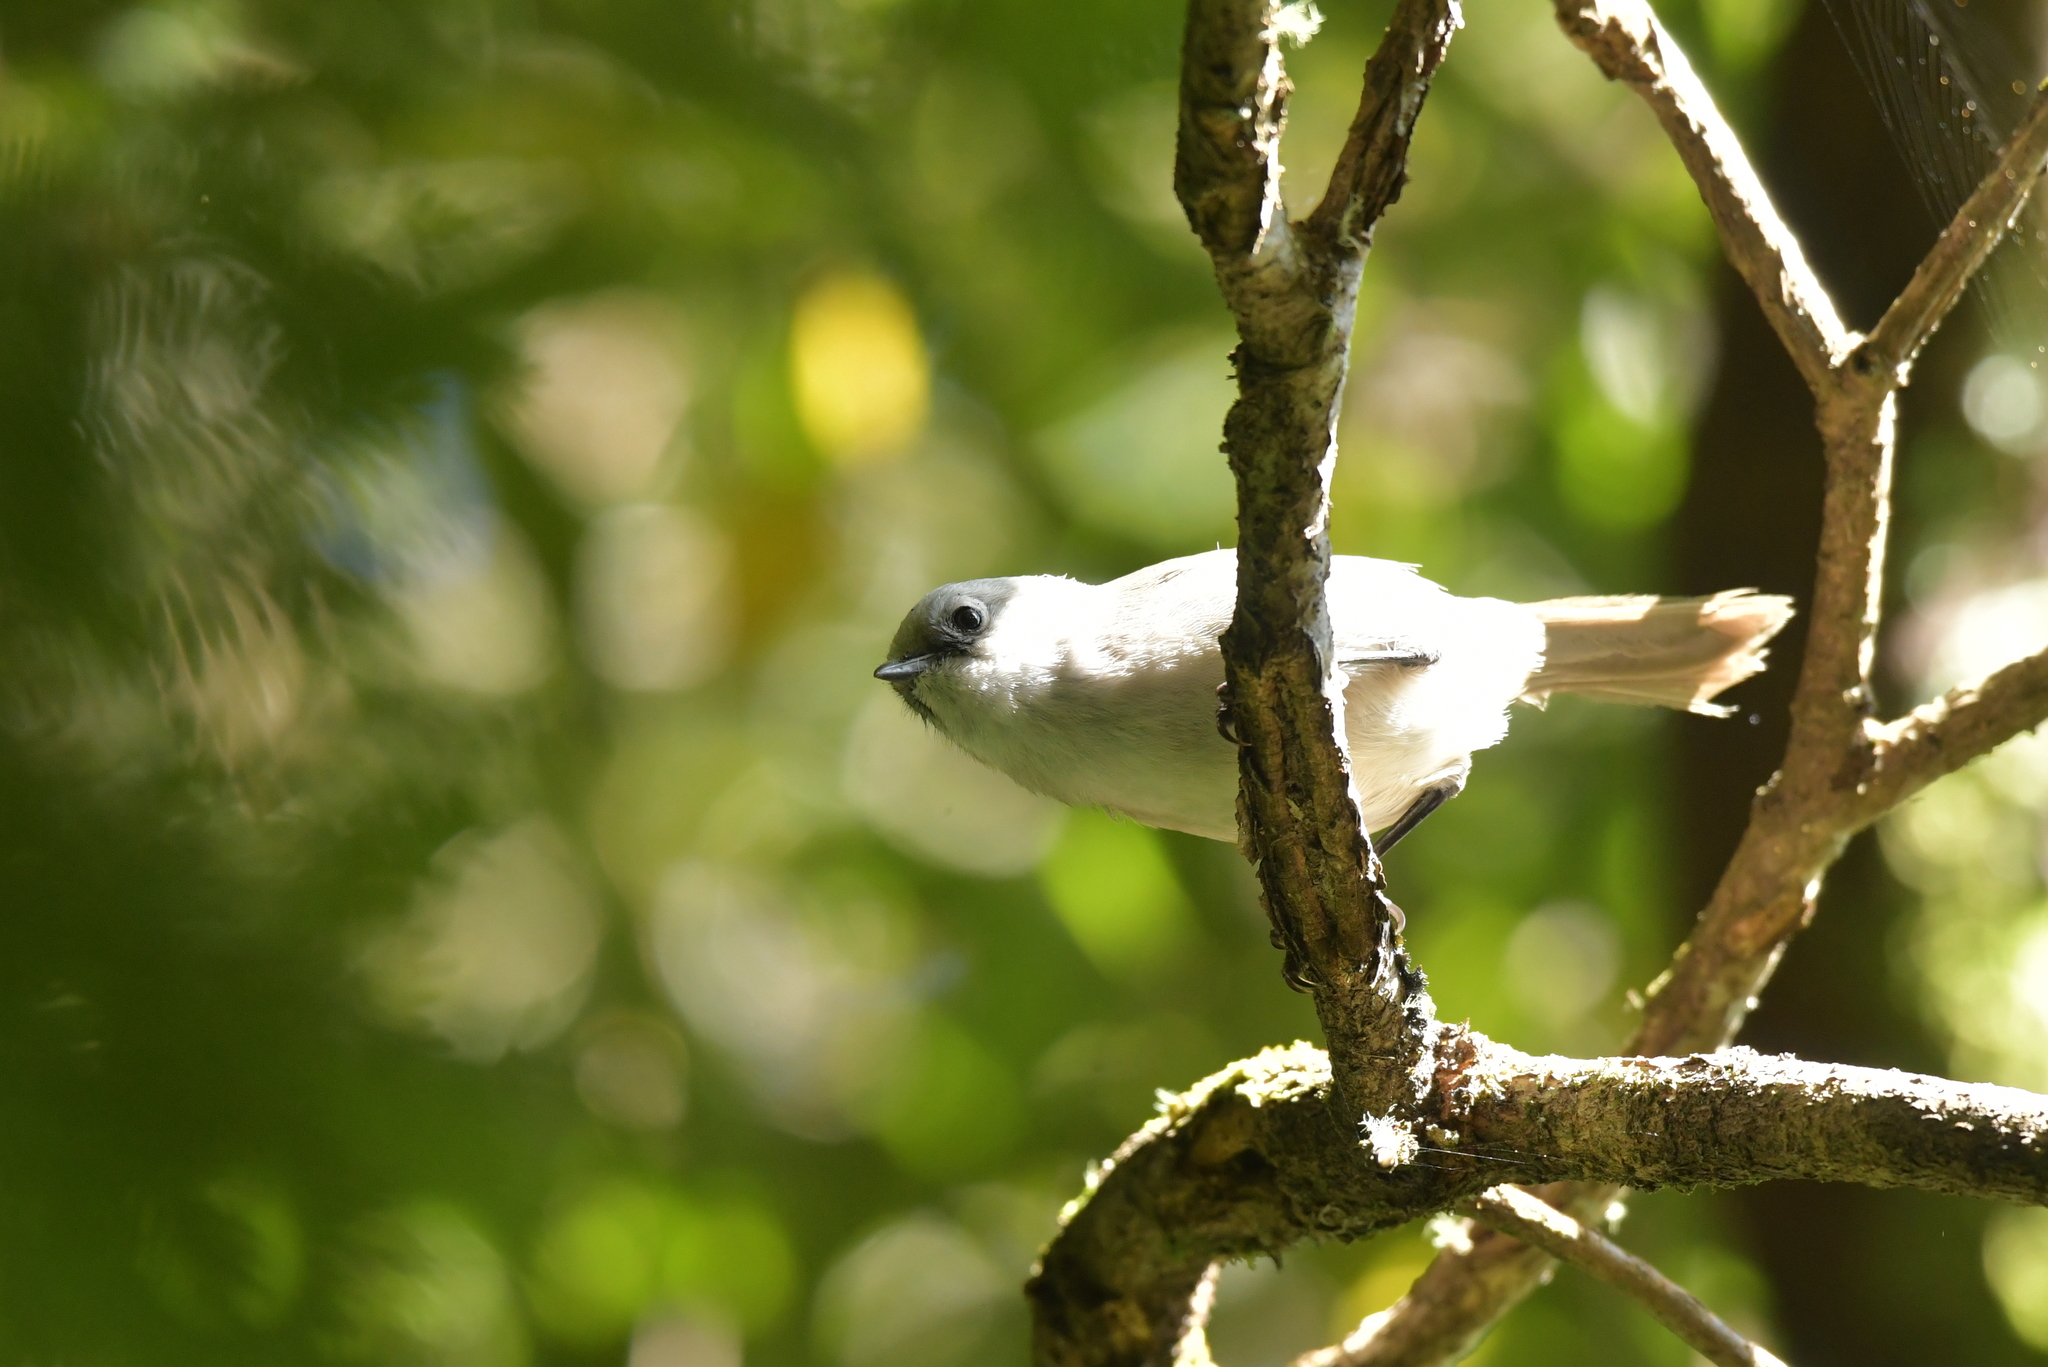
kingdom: Animalia
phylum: Chordata
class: Aves
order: Passeriformes
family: Acanthizidae
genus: Mohoua
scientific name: Mohoua albicilla
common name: Whitehead
